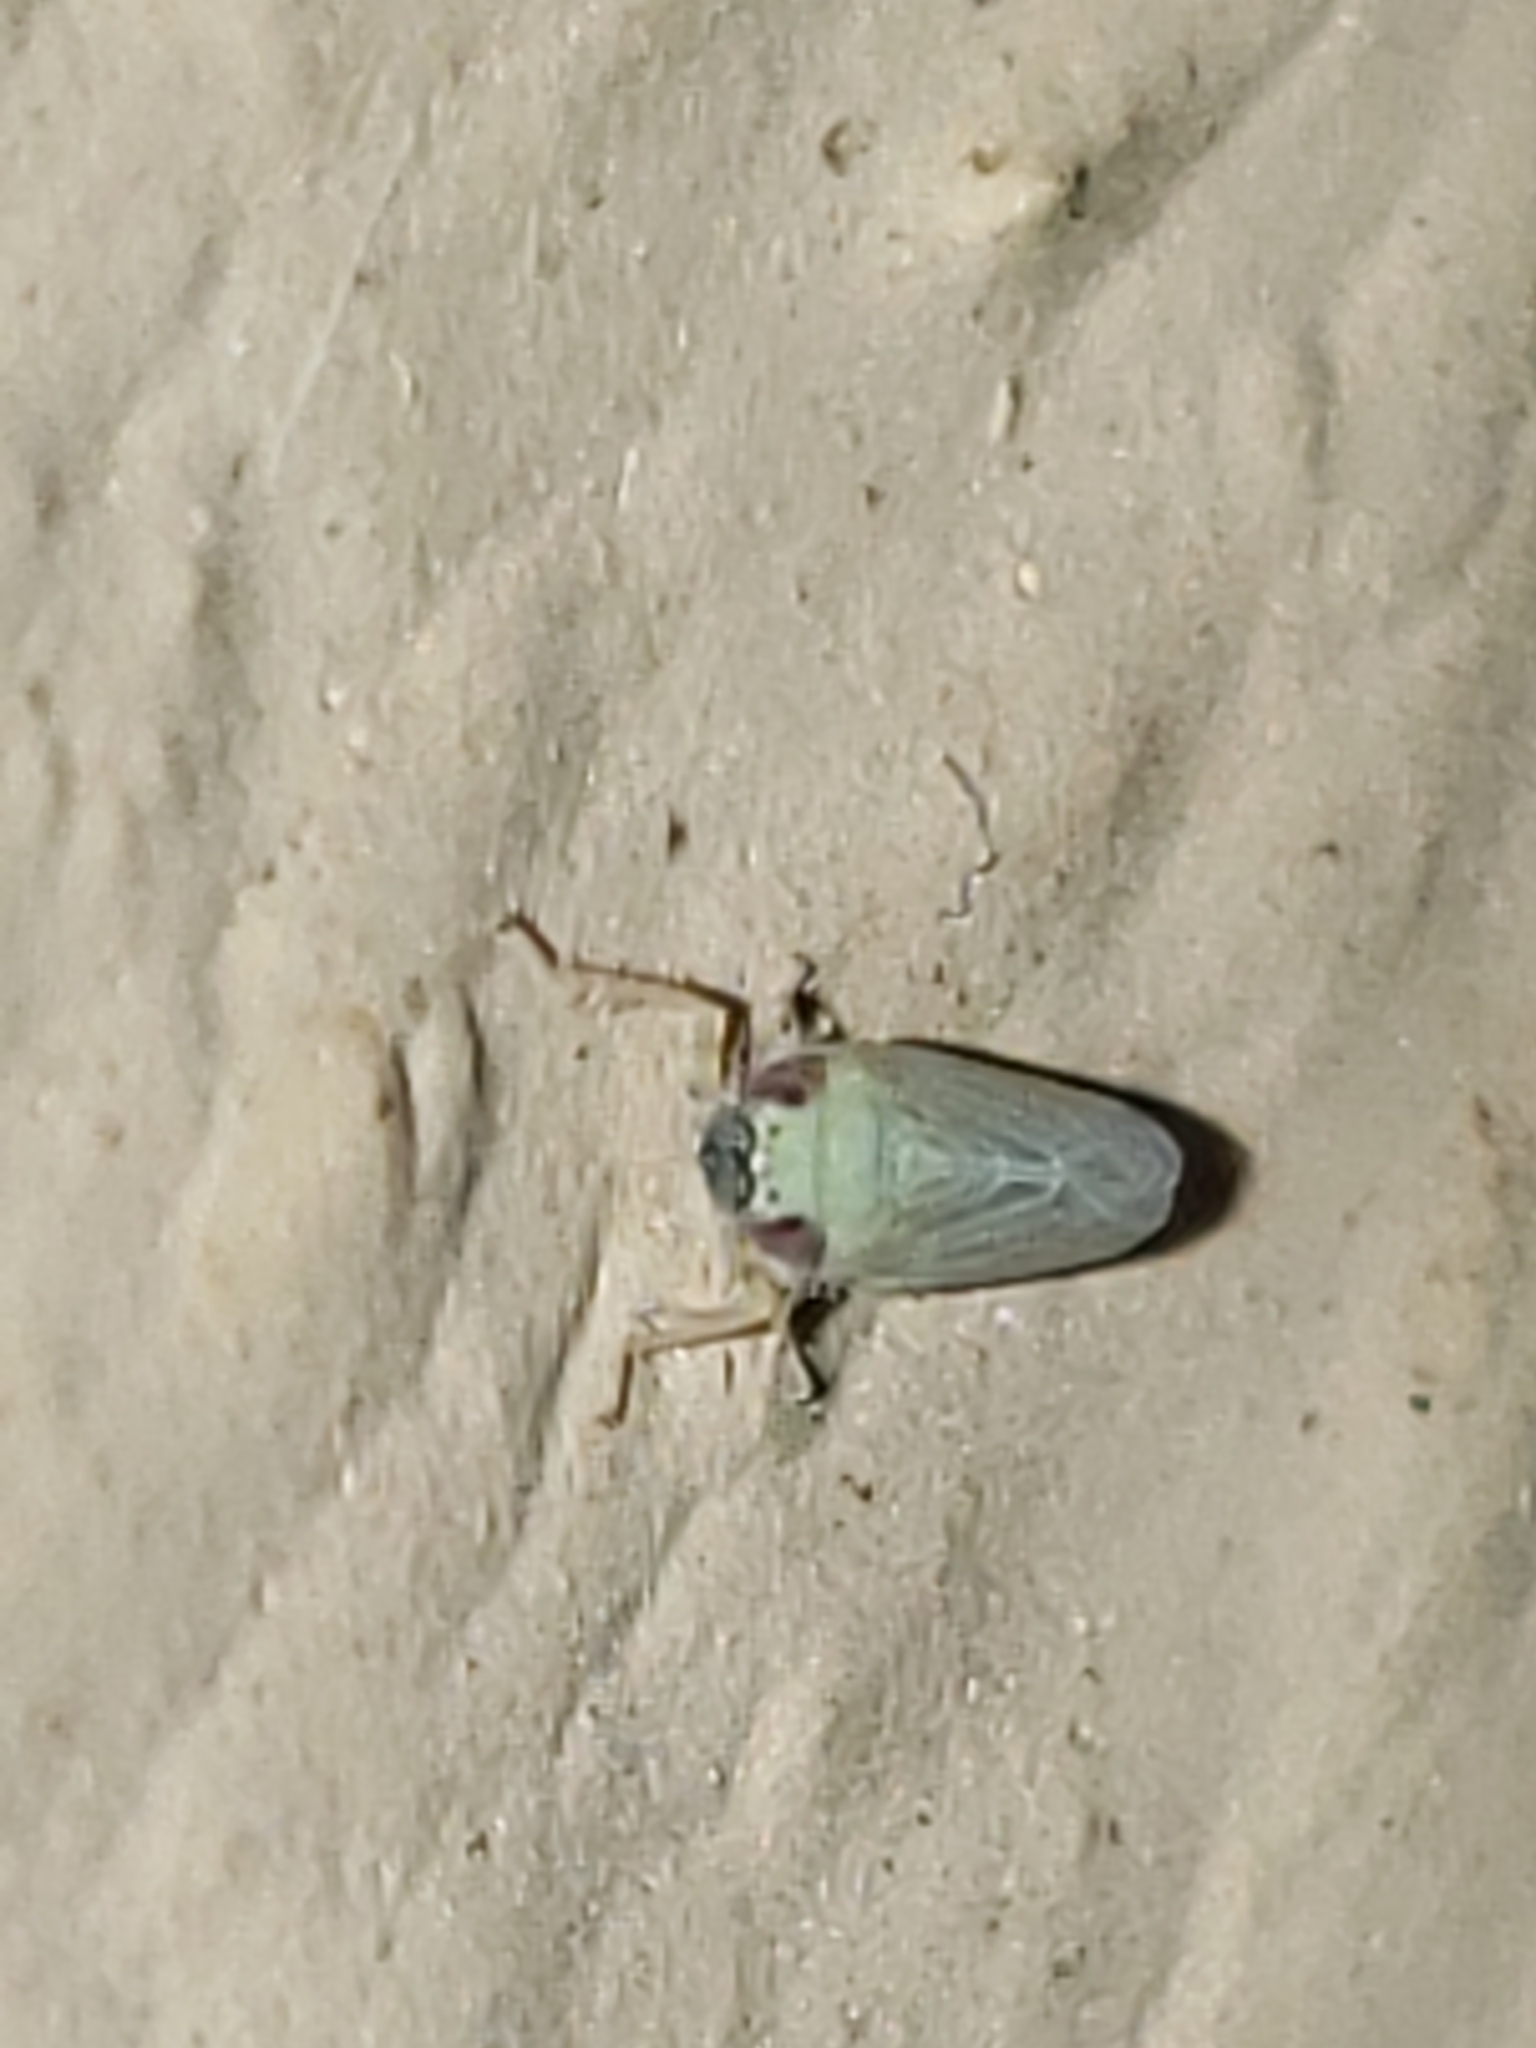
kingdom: Animalia
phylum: Arthropoda
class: Insecta
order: Hemiptera
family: Cicadellidae
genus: Graminella
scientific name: Graminella nigrifrons
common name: Blackfaced leafhopper
